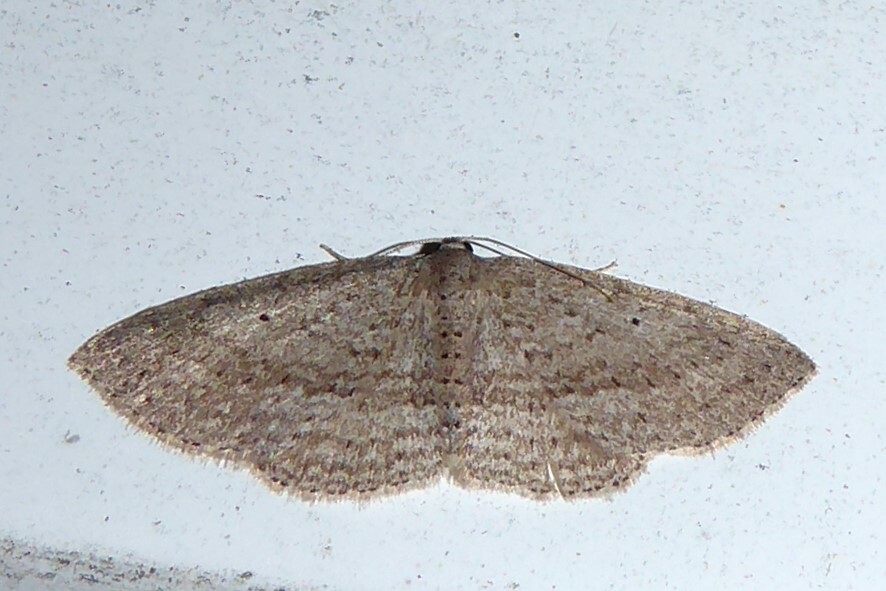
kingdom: Animalia
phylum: Arthropoda
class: Insecta
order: Lepidoptera
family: Geometridae
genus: Poecilasthena
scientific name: Poecilasthena schistaria
